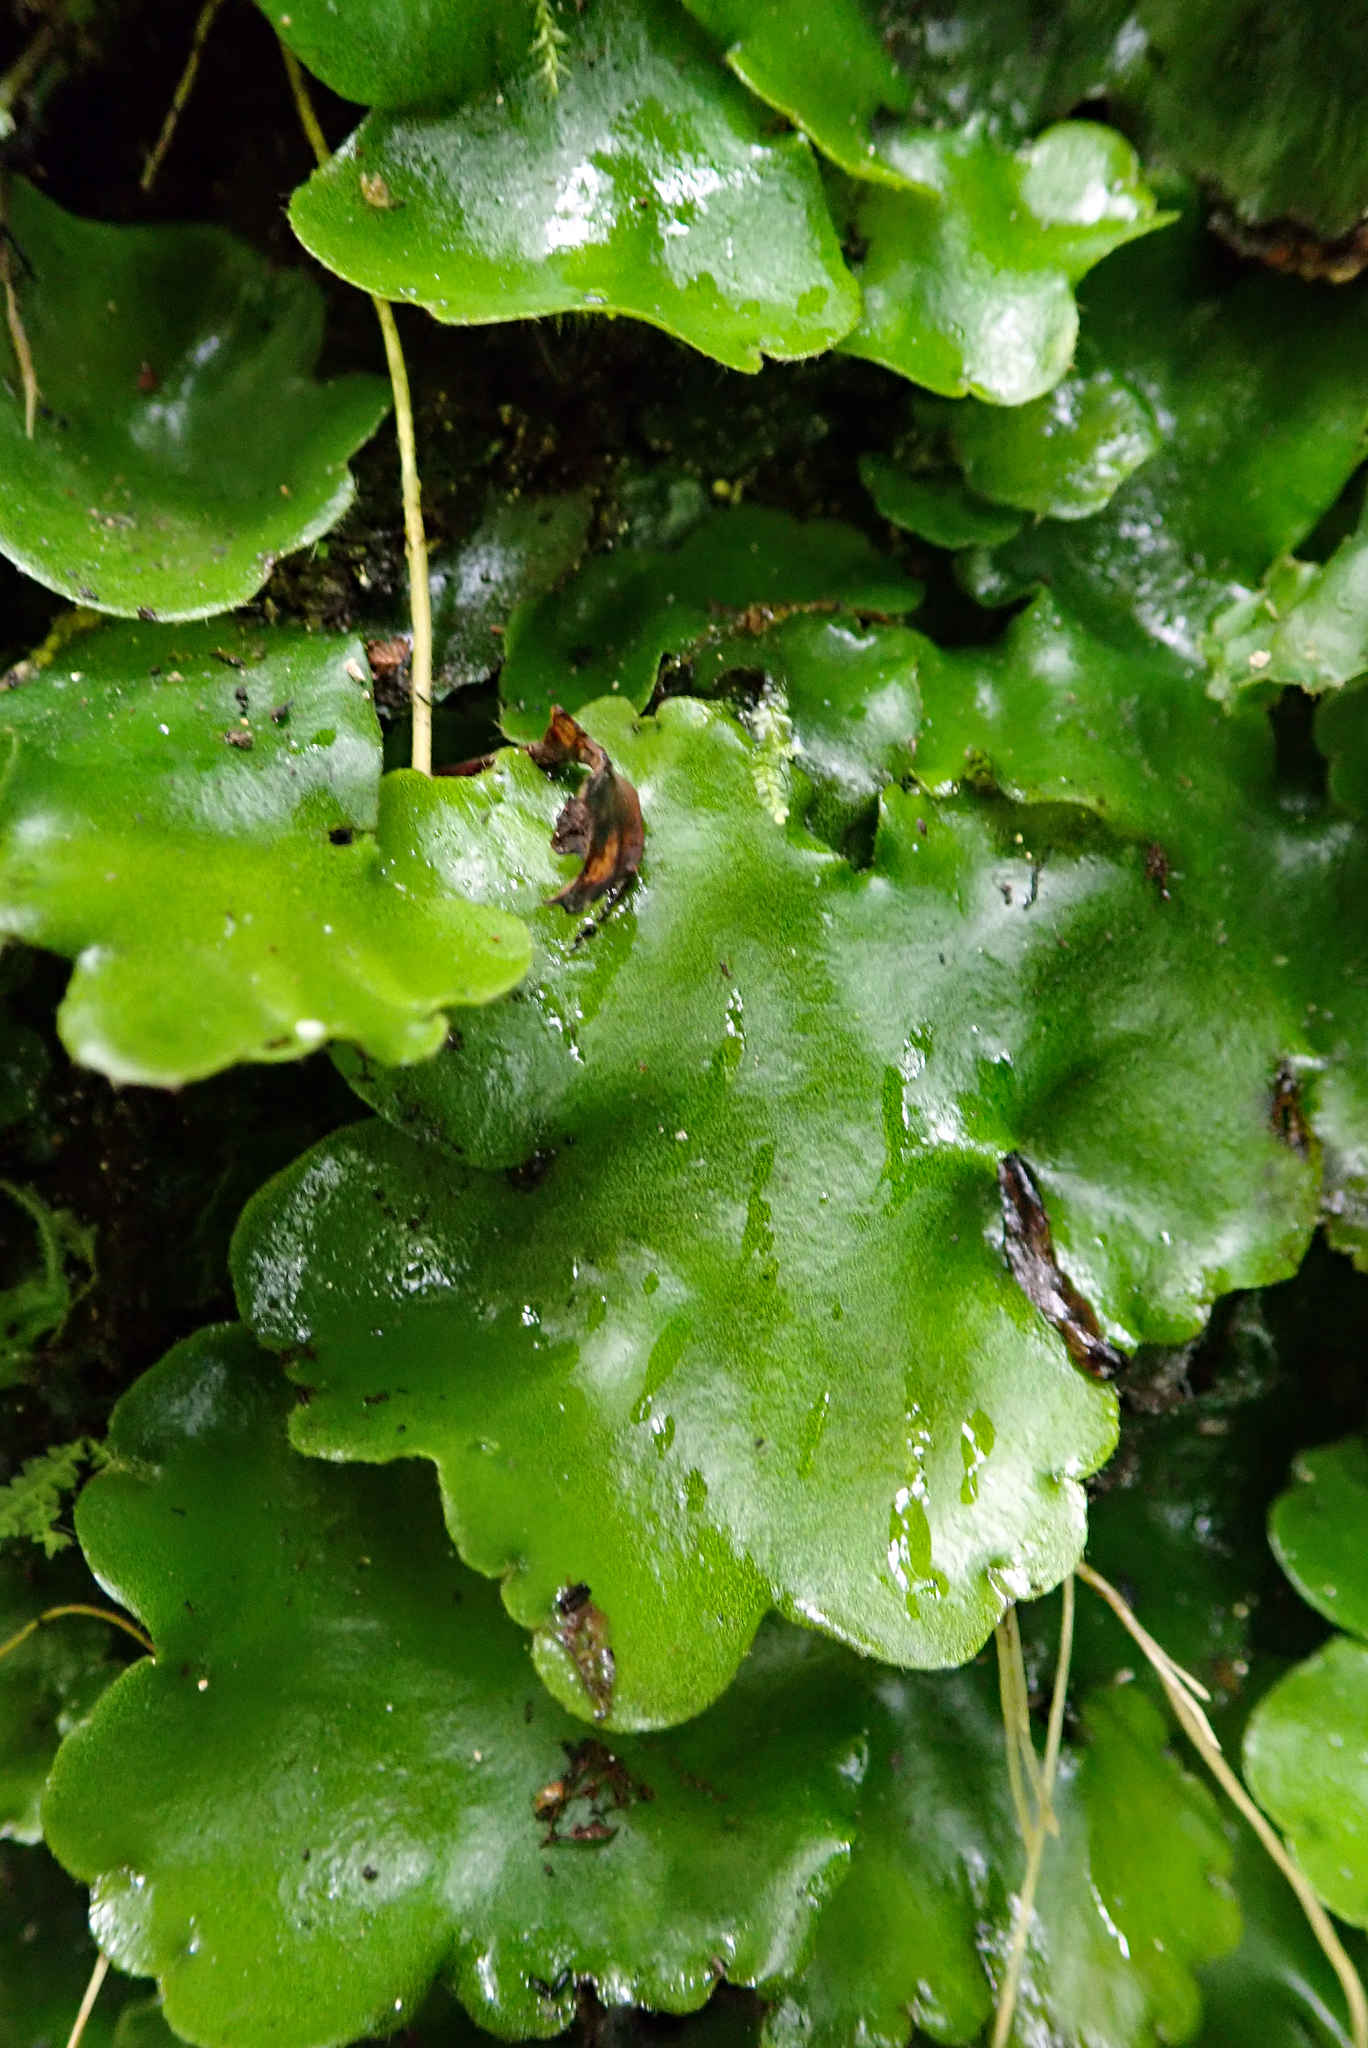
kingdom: Plantae
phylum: Marchantiophyta
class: Marchantiopsida
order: Marchantiales
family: Monocleaceae
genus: Monoclea
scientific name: Monoclea forsteri
